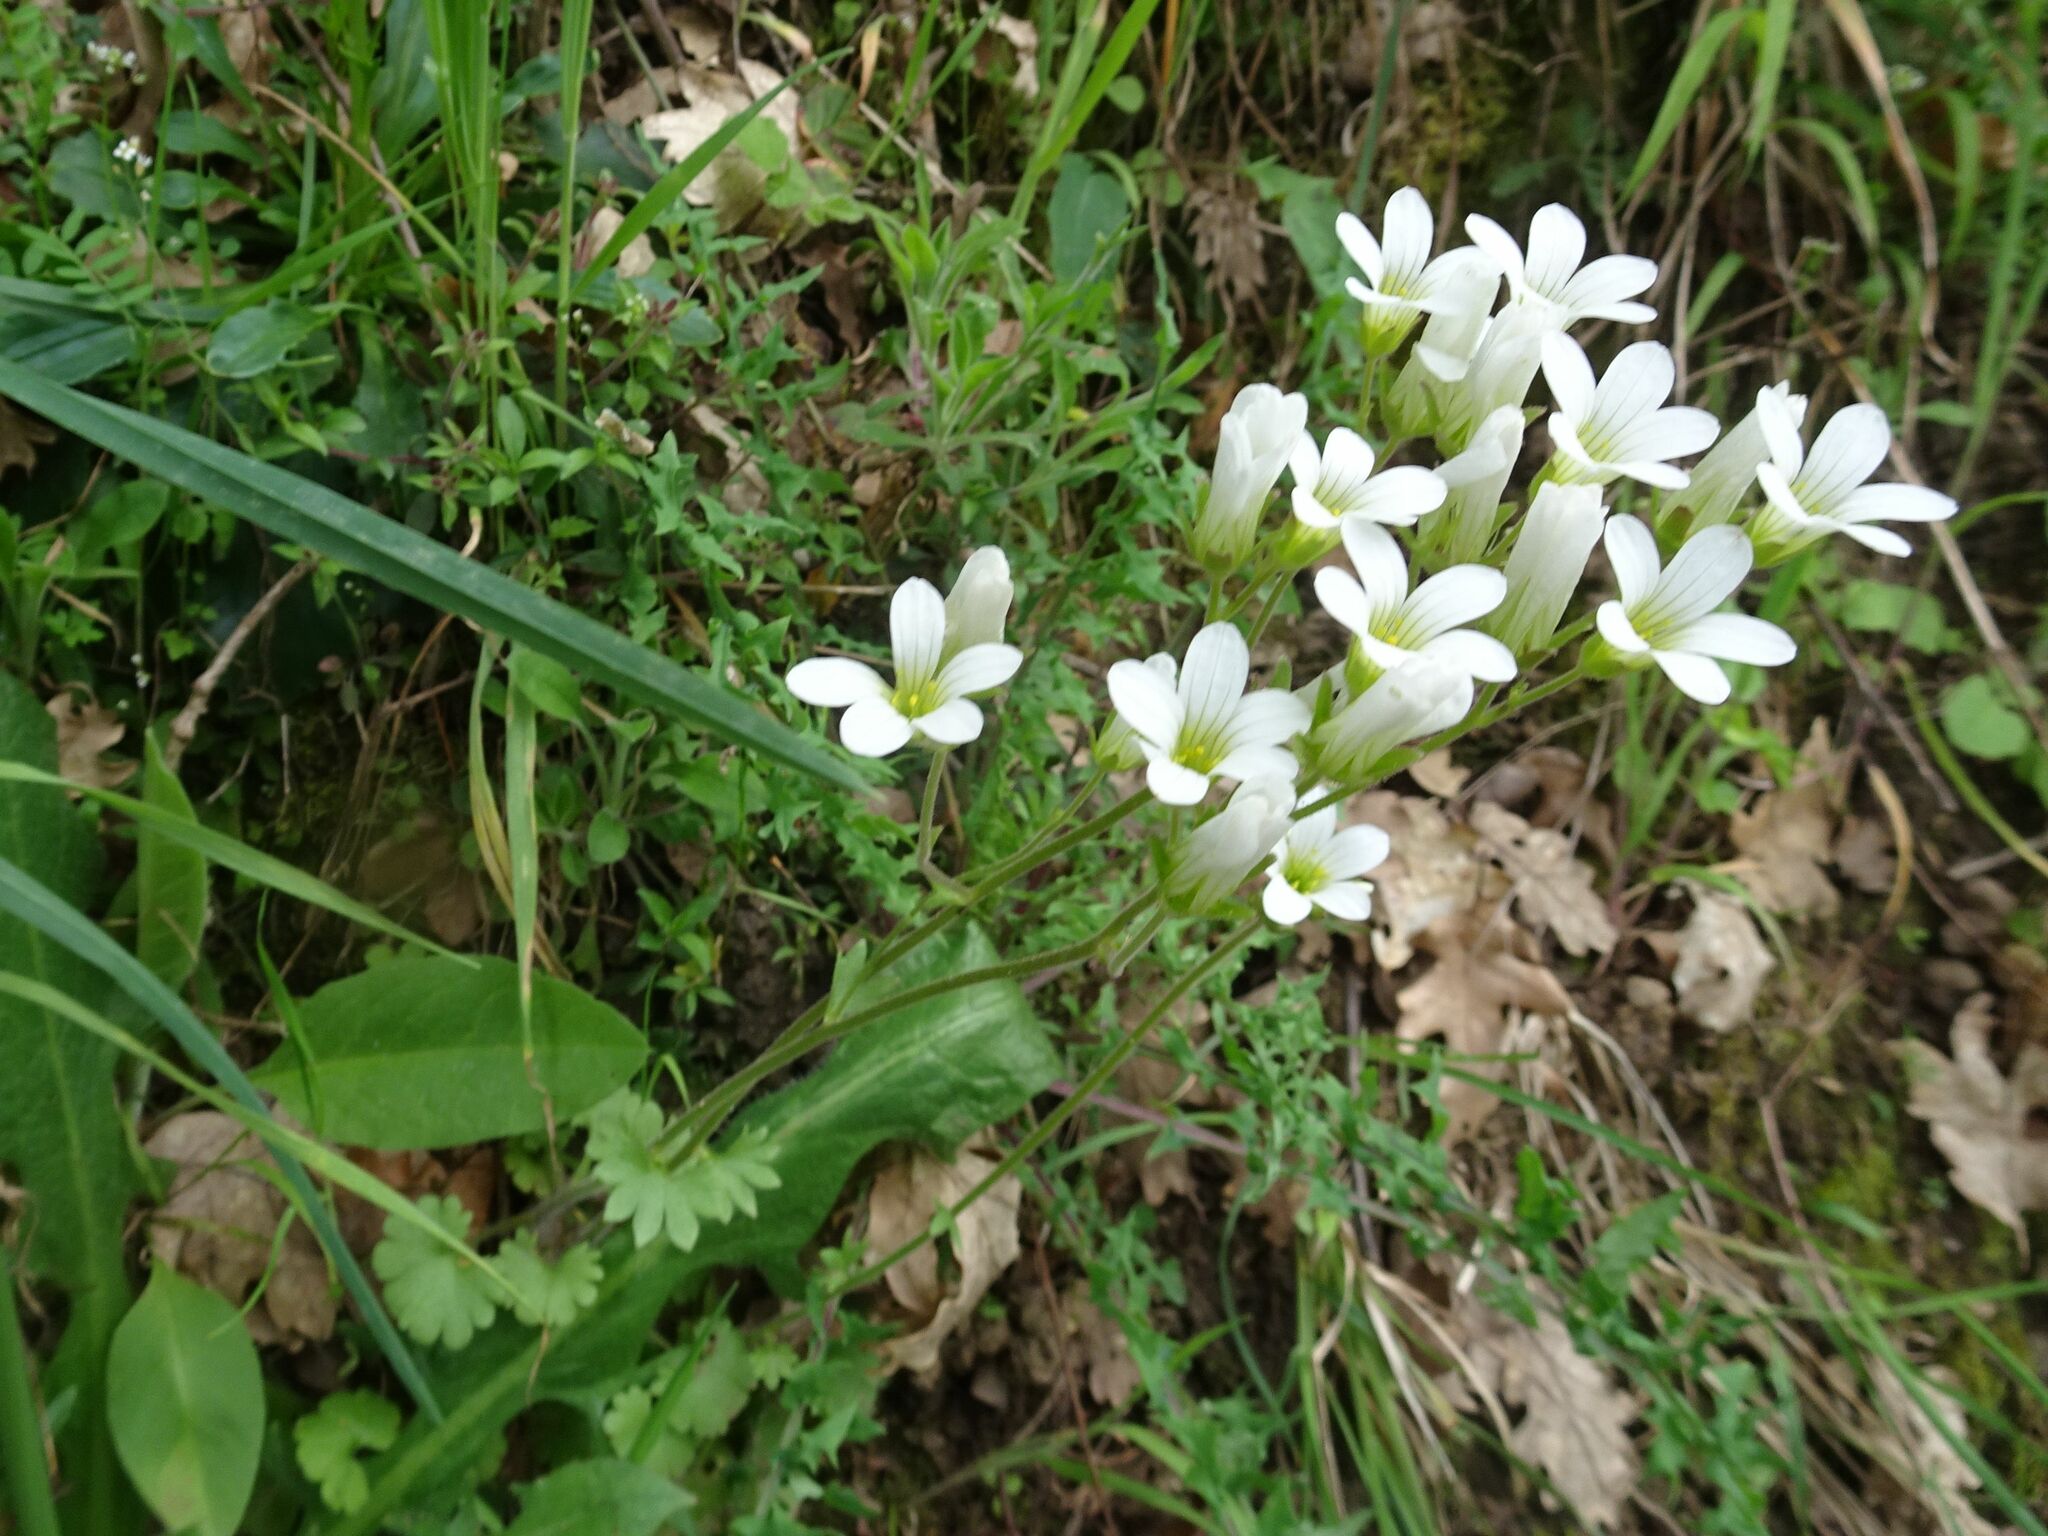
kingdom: Plantae
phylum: Tracheophyta
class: Magnoliopsida
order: Saxifragales
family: Saxifragaceae
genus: Saxifraga
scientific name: Saxifraga granulata
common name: Meadow saxifrage
